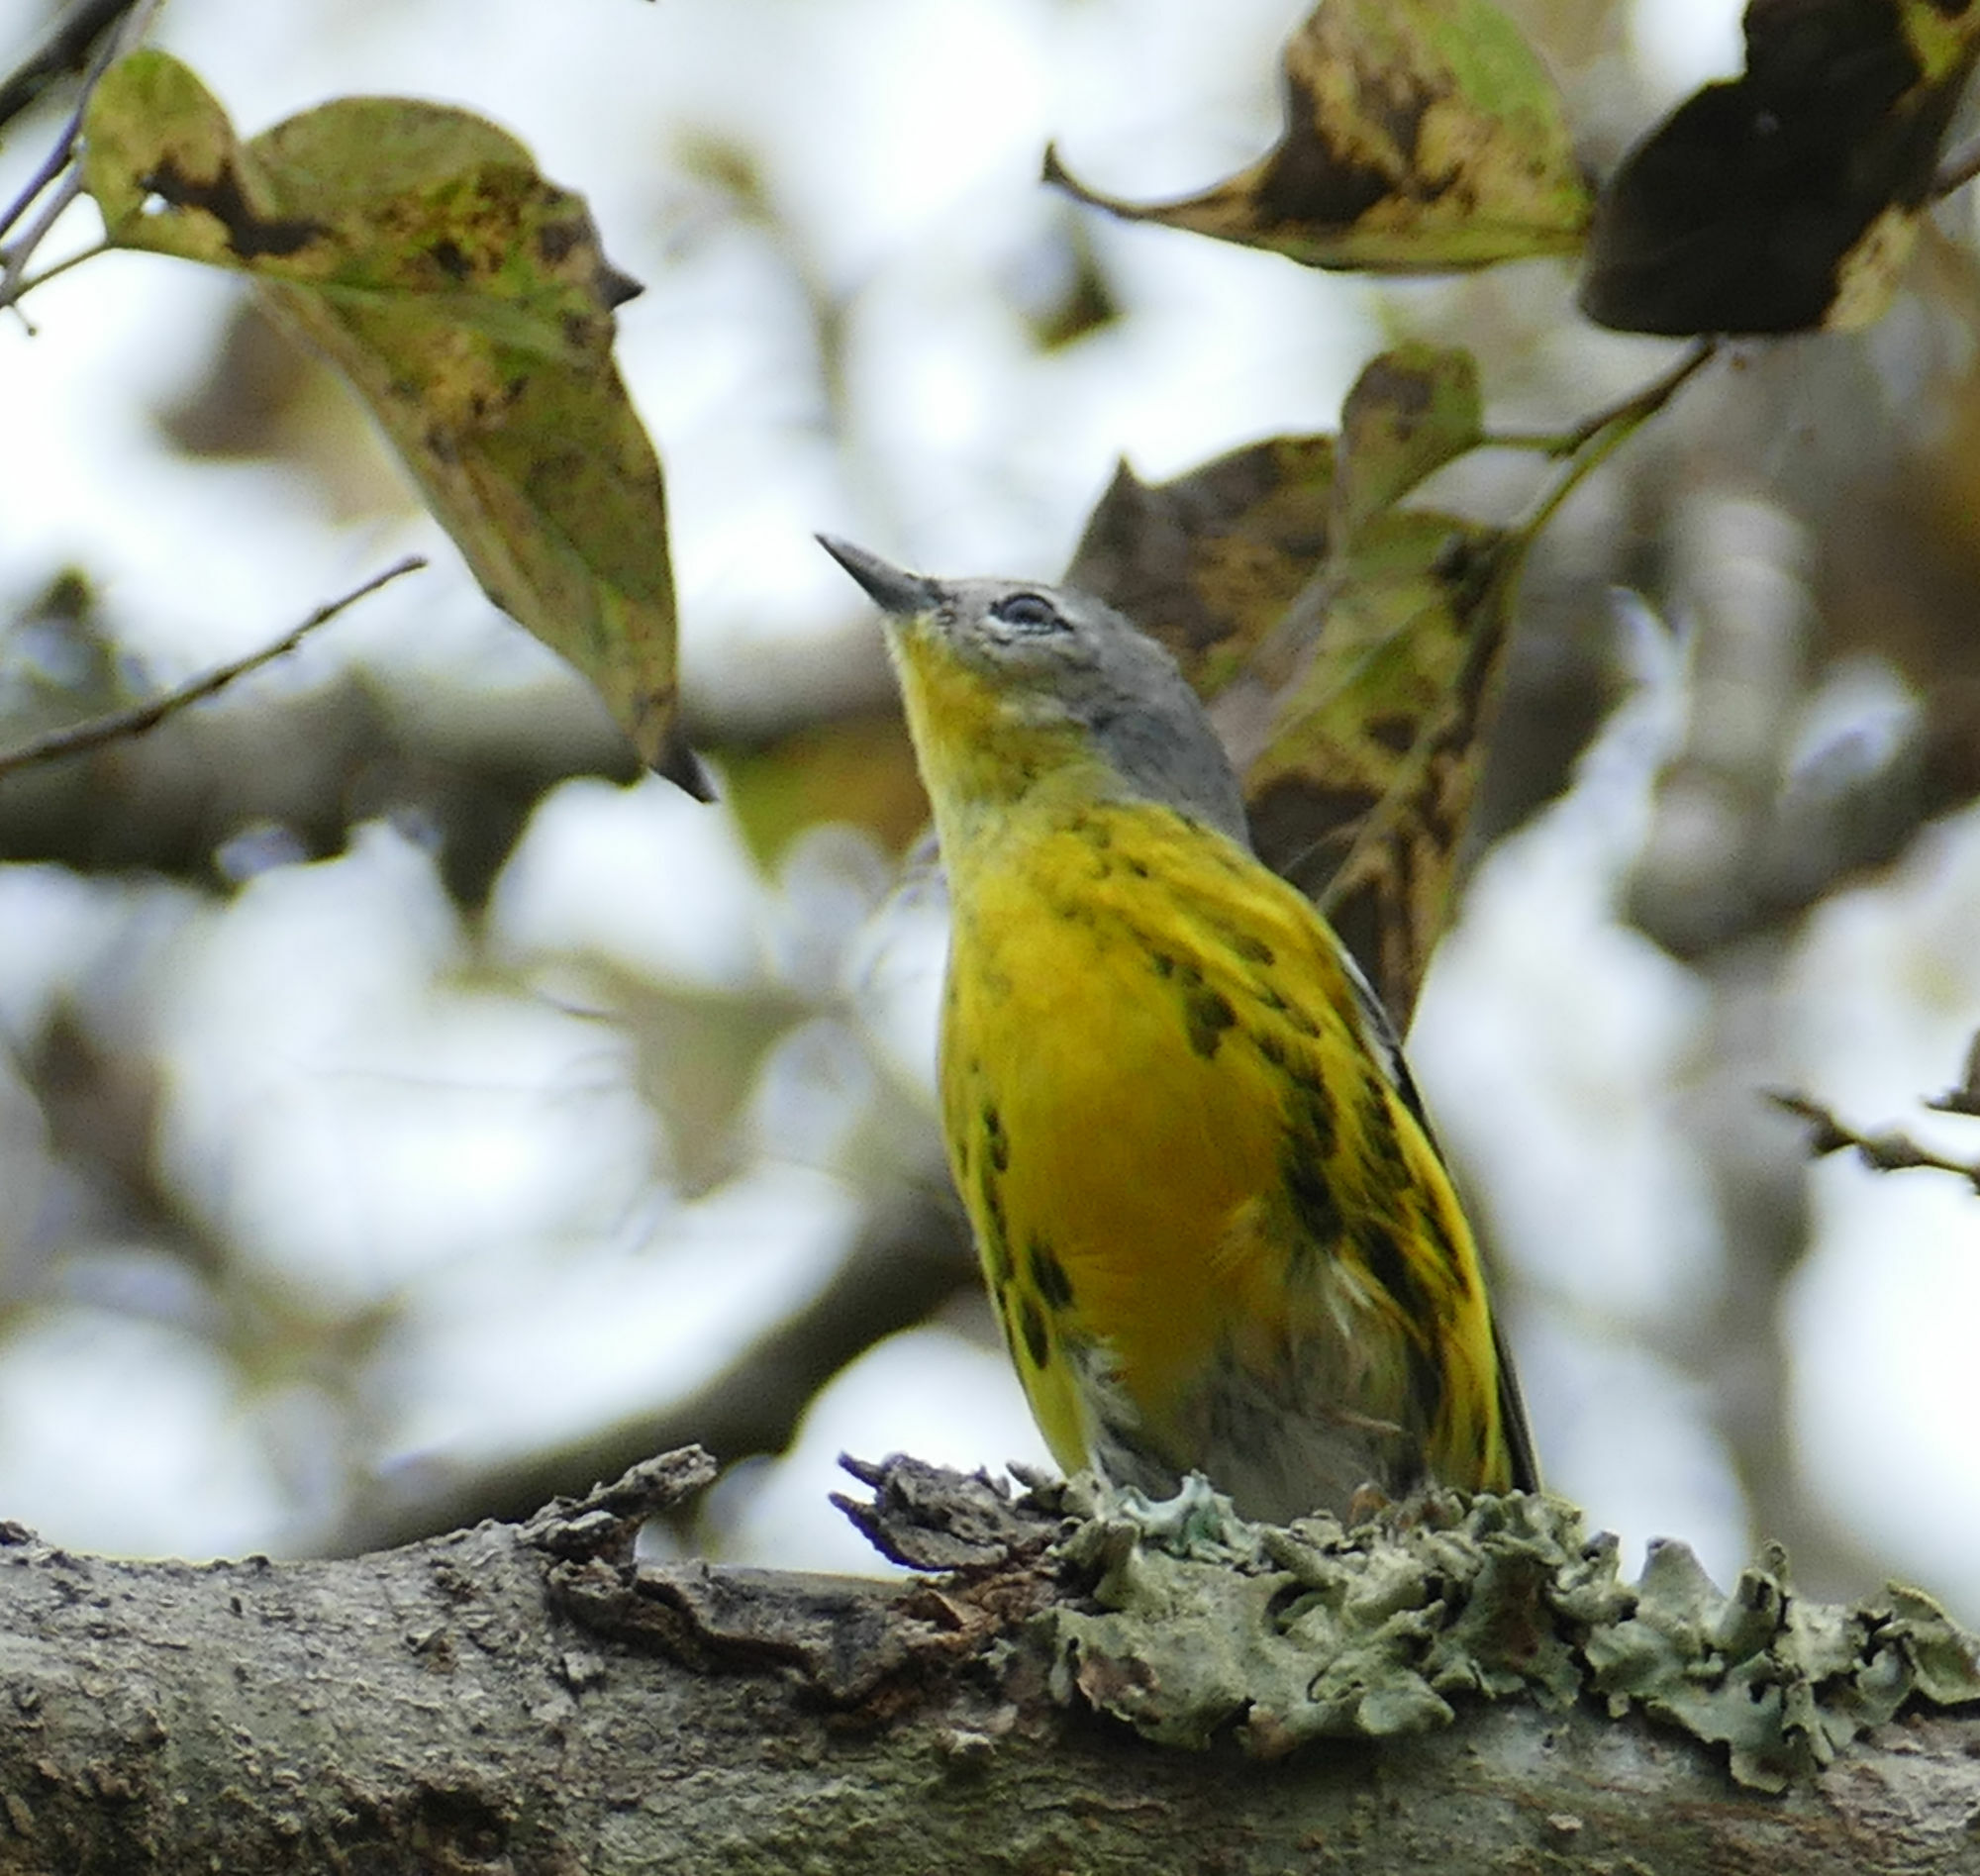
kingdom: Animalia
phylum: Chordata
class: Aves
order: Passeriformes
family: Parulidae
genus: Setophaga
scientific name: Setophaga magnolia
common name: Magnolia warbler
